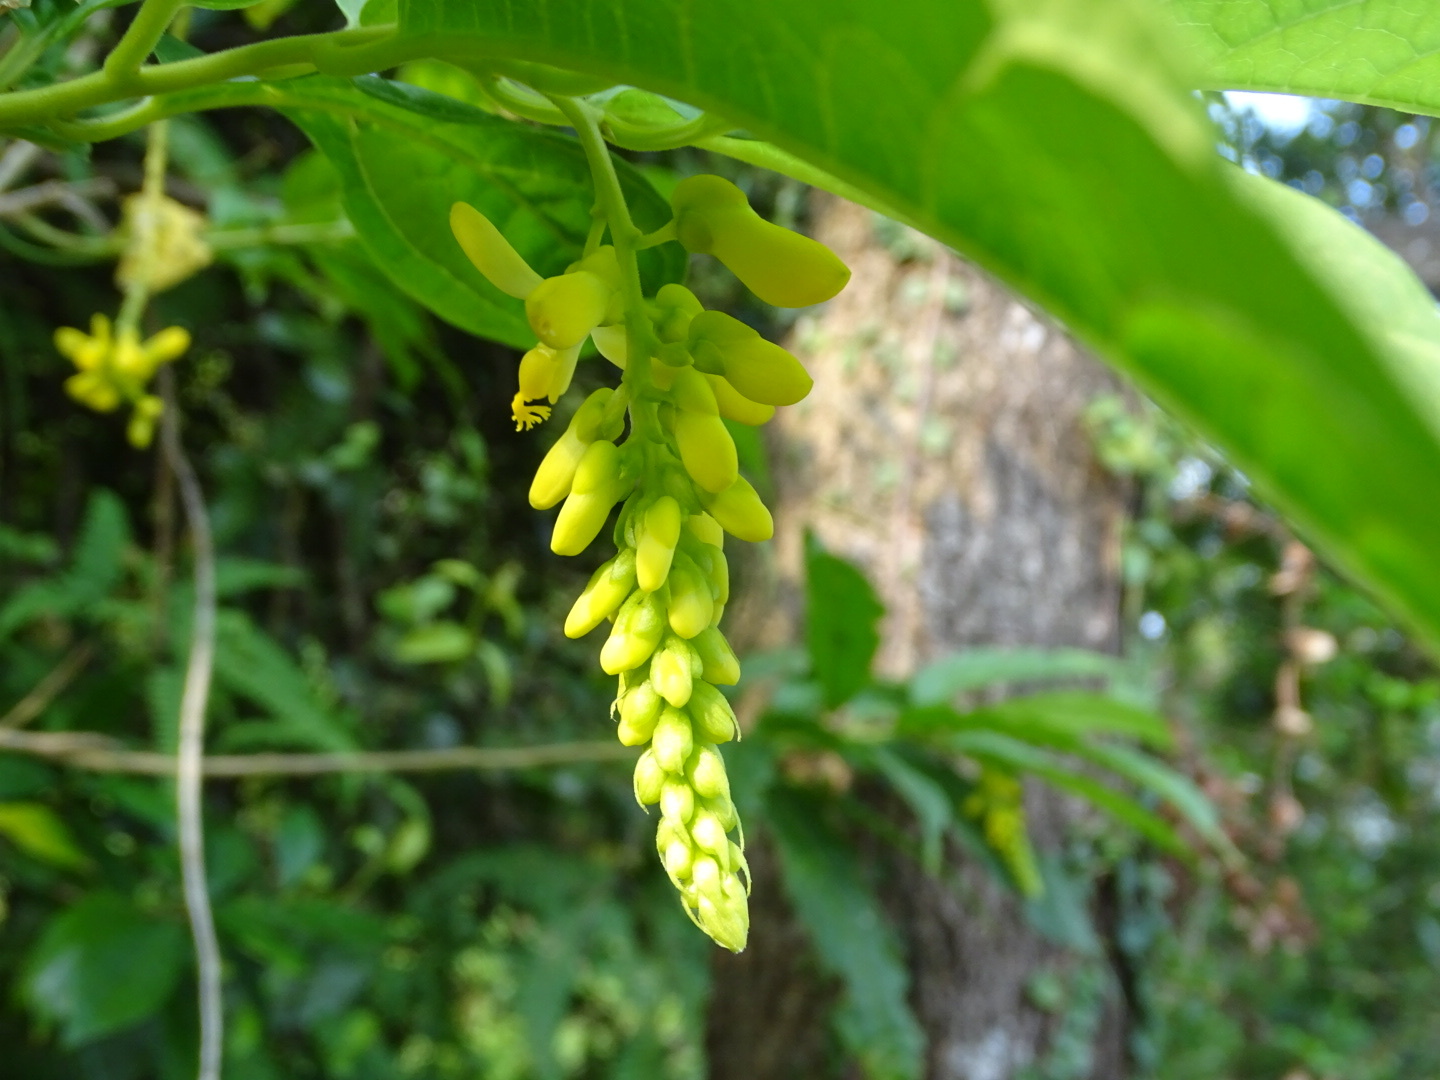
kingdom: Plantae
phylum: Tracheophyta
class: Magnoliopsida
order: Fabales
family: Polygalaceae
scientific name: Polygalaceae
